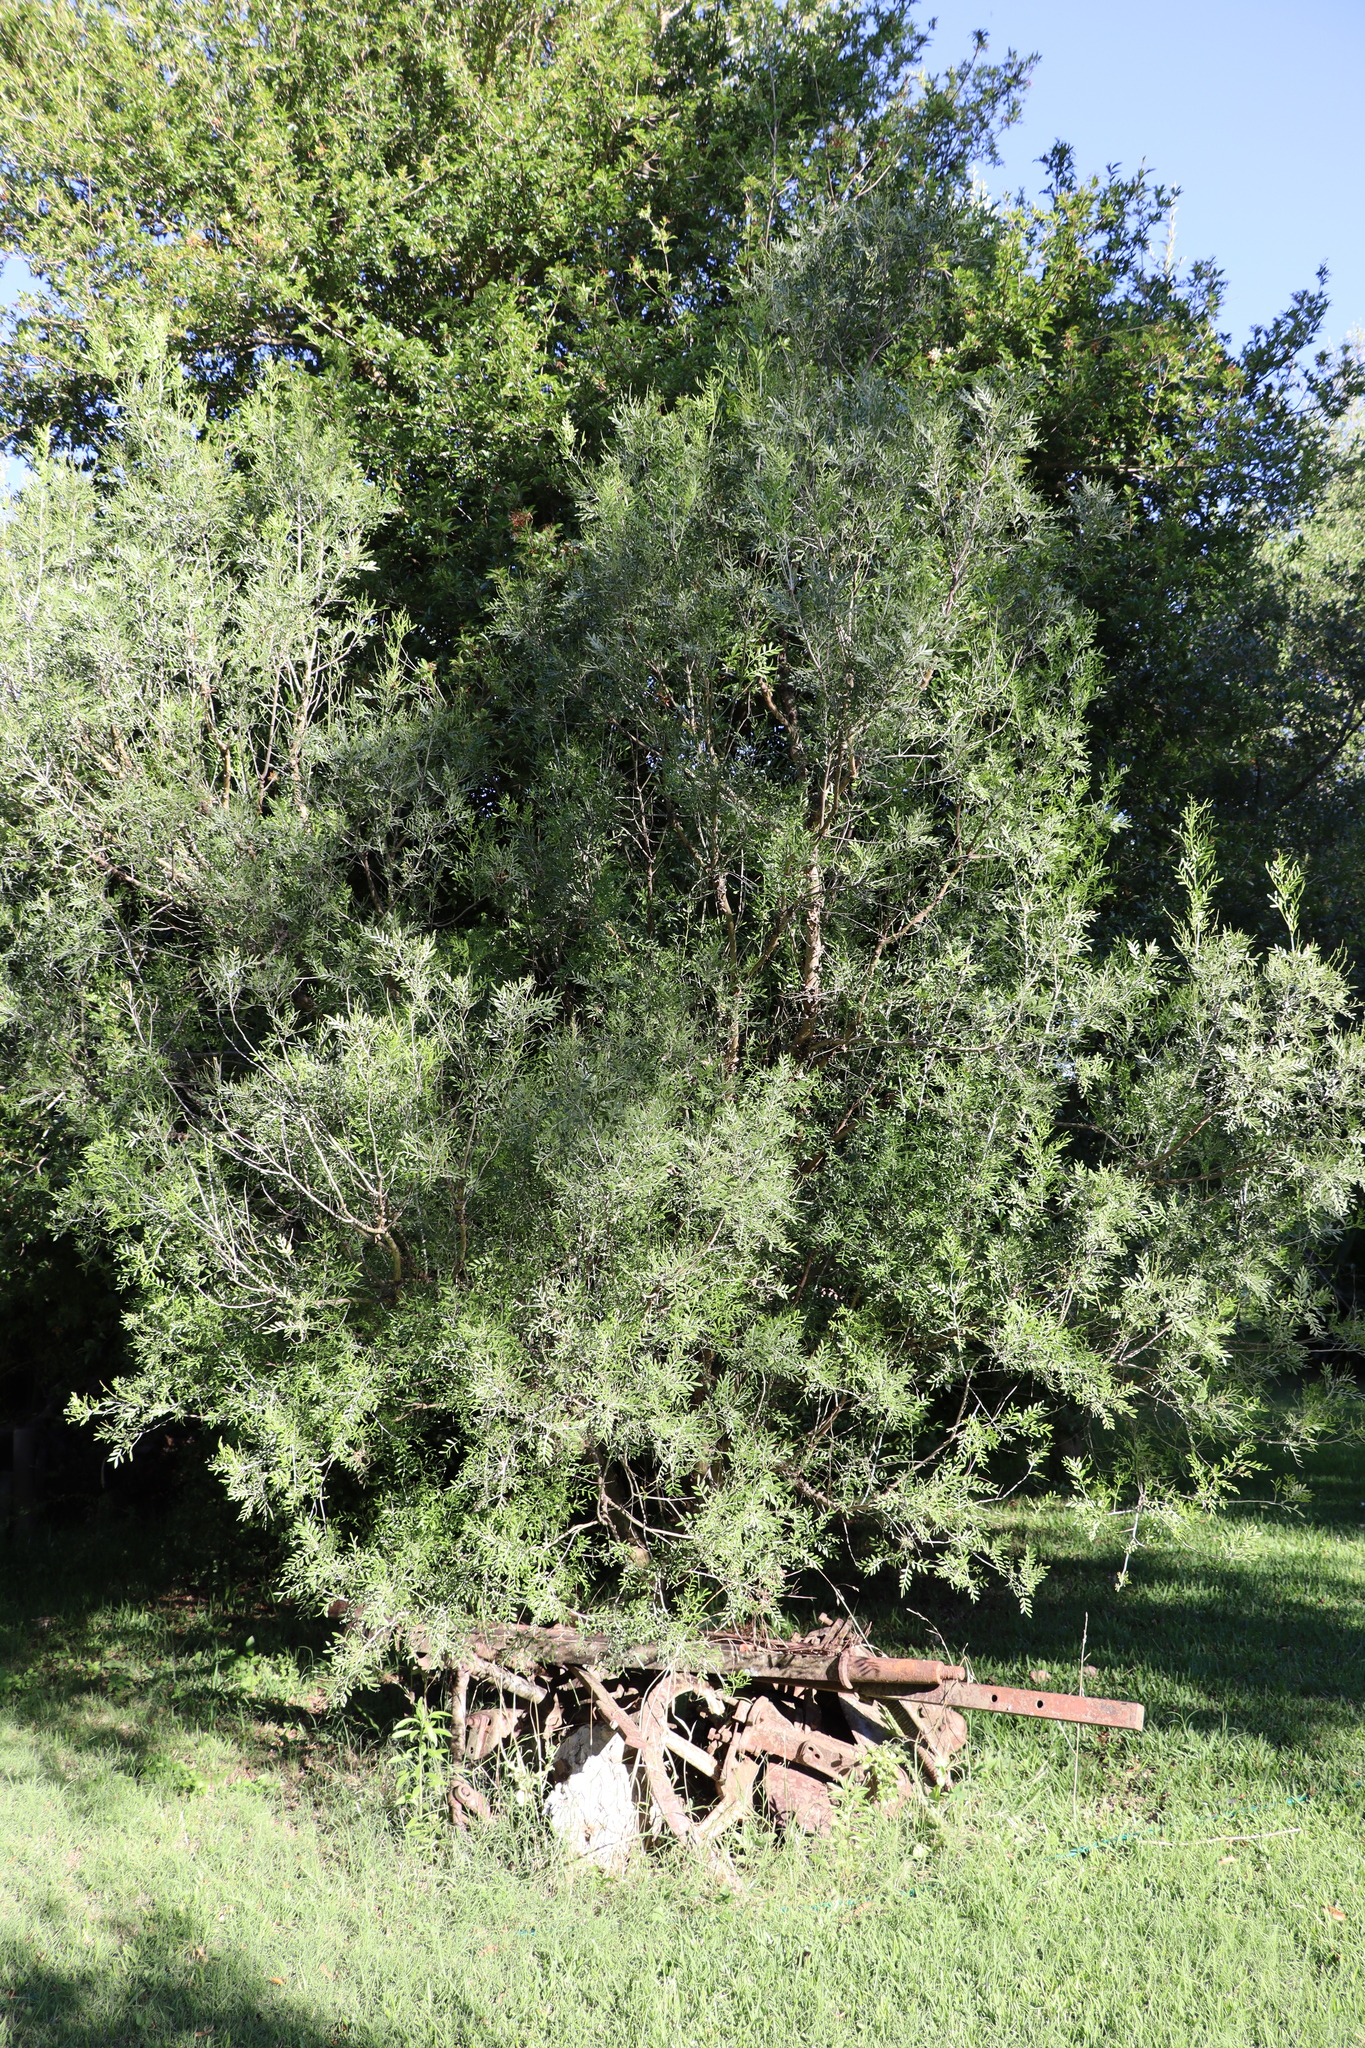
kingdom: Plantae
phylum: Tracheophyta
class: Magnoliopsida
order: Sapindales
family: Anacardiaceae
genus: Schinus
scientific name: Schinus lentiscifolia
